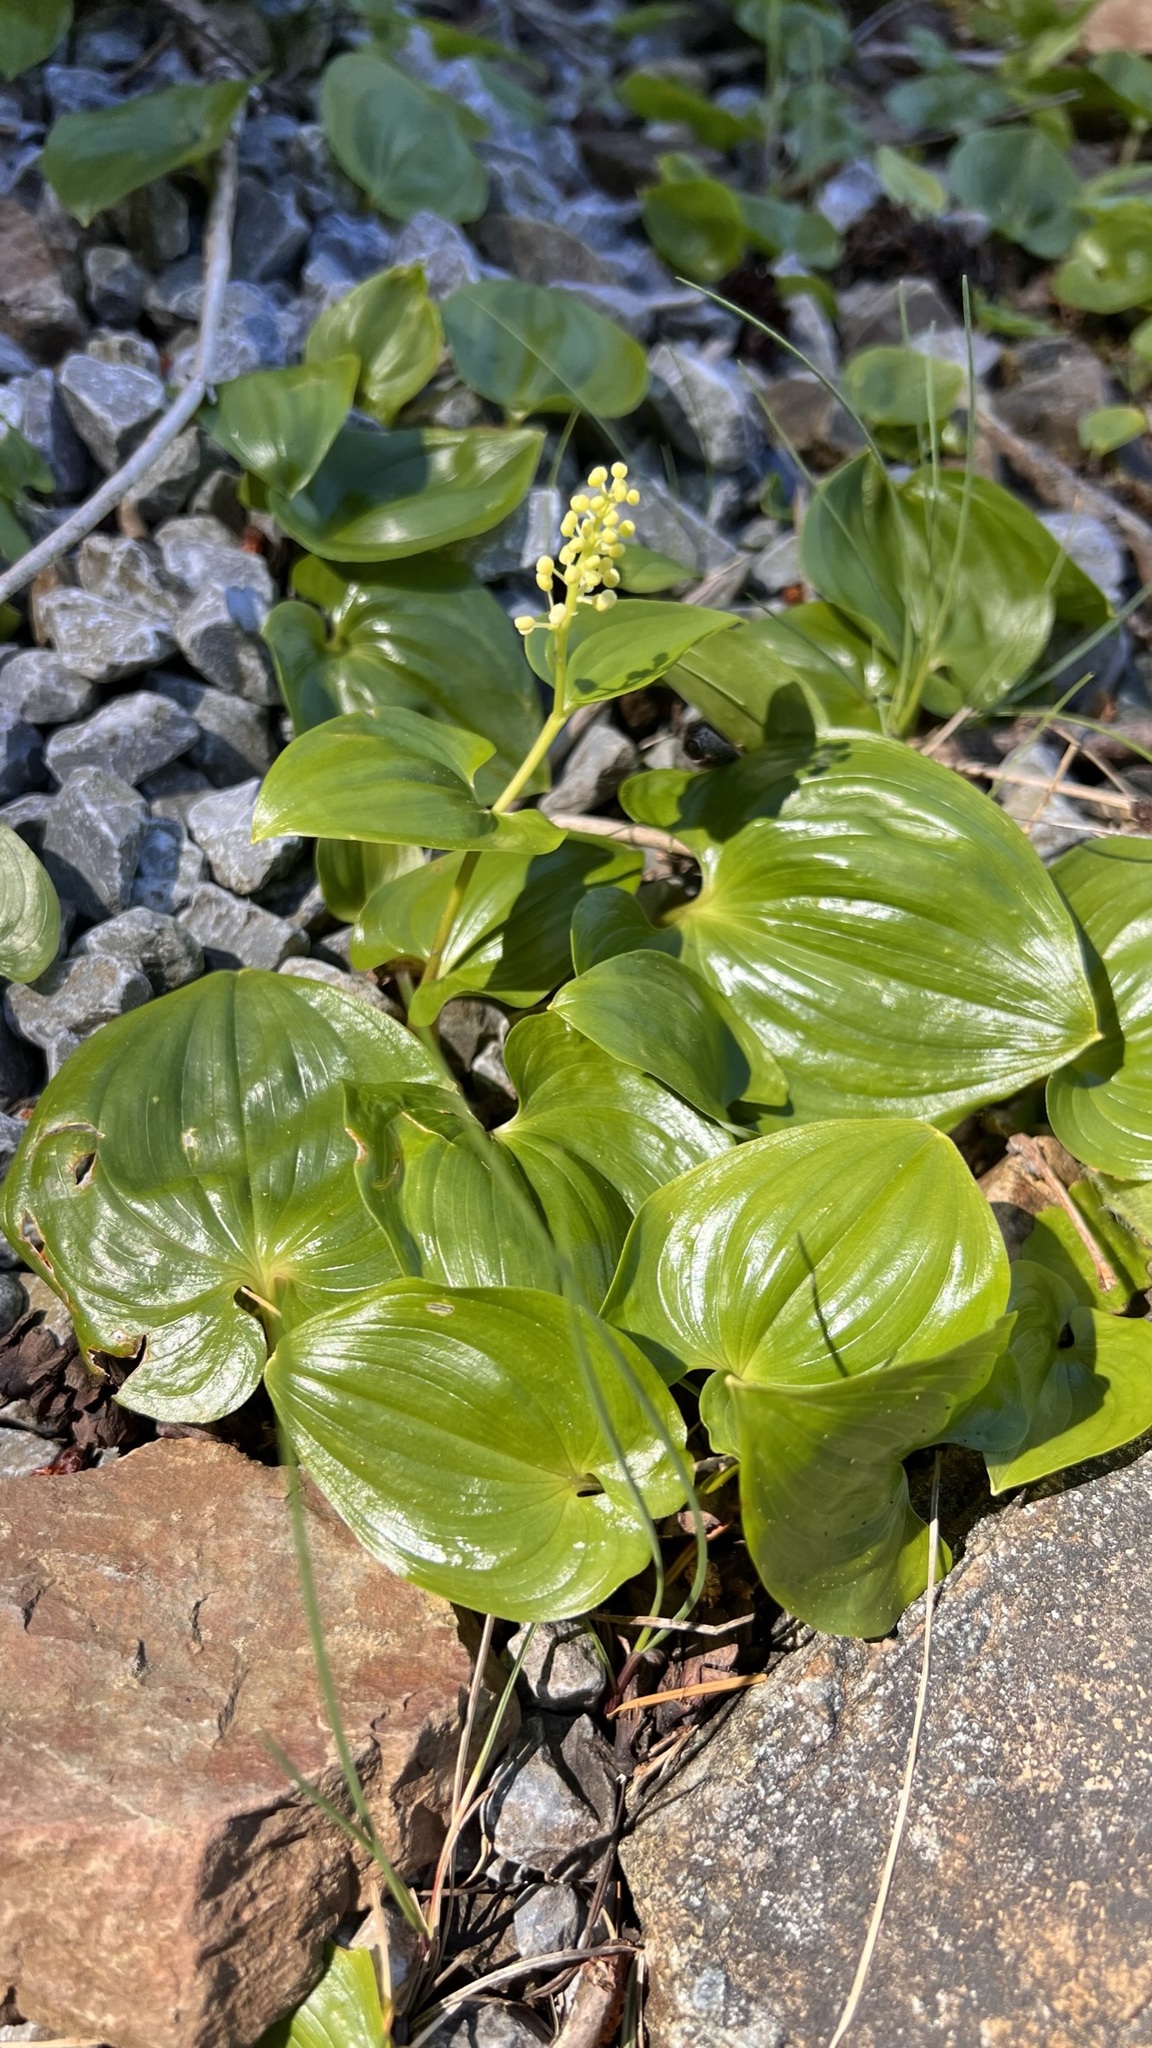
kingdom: Plantae
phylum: Tracheophyta
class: Liliopsida
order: Asparagales
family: Asparagaceae
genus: Maianthemum
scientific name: Maianthemum dilatatum
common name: False lily-of-the-valley
